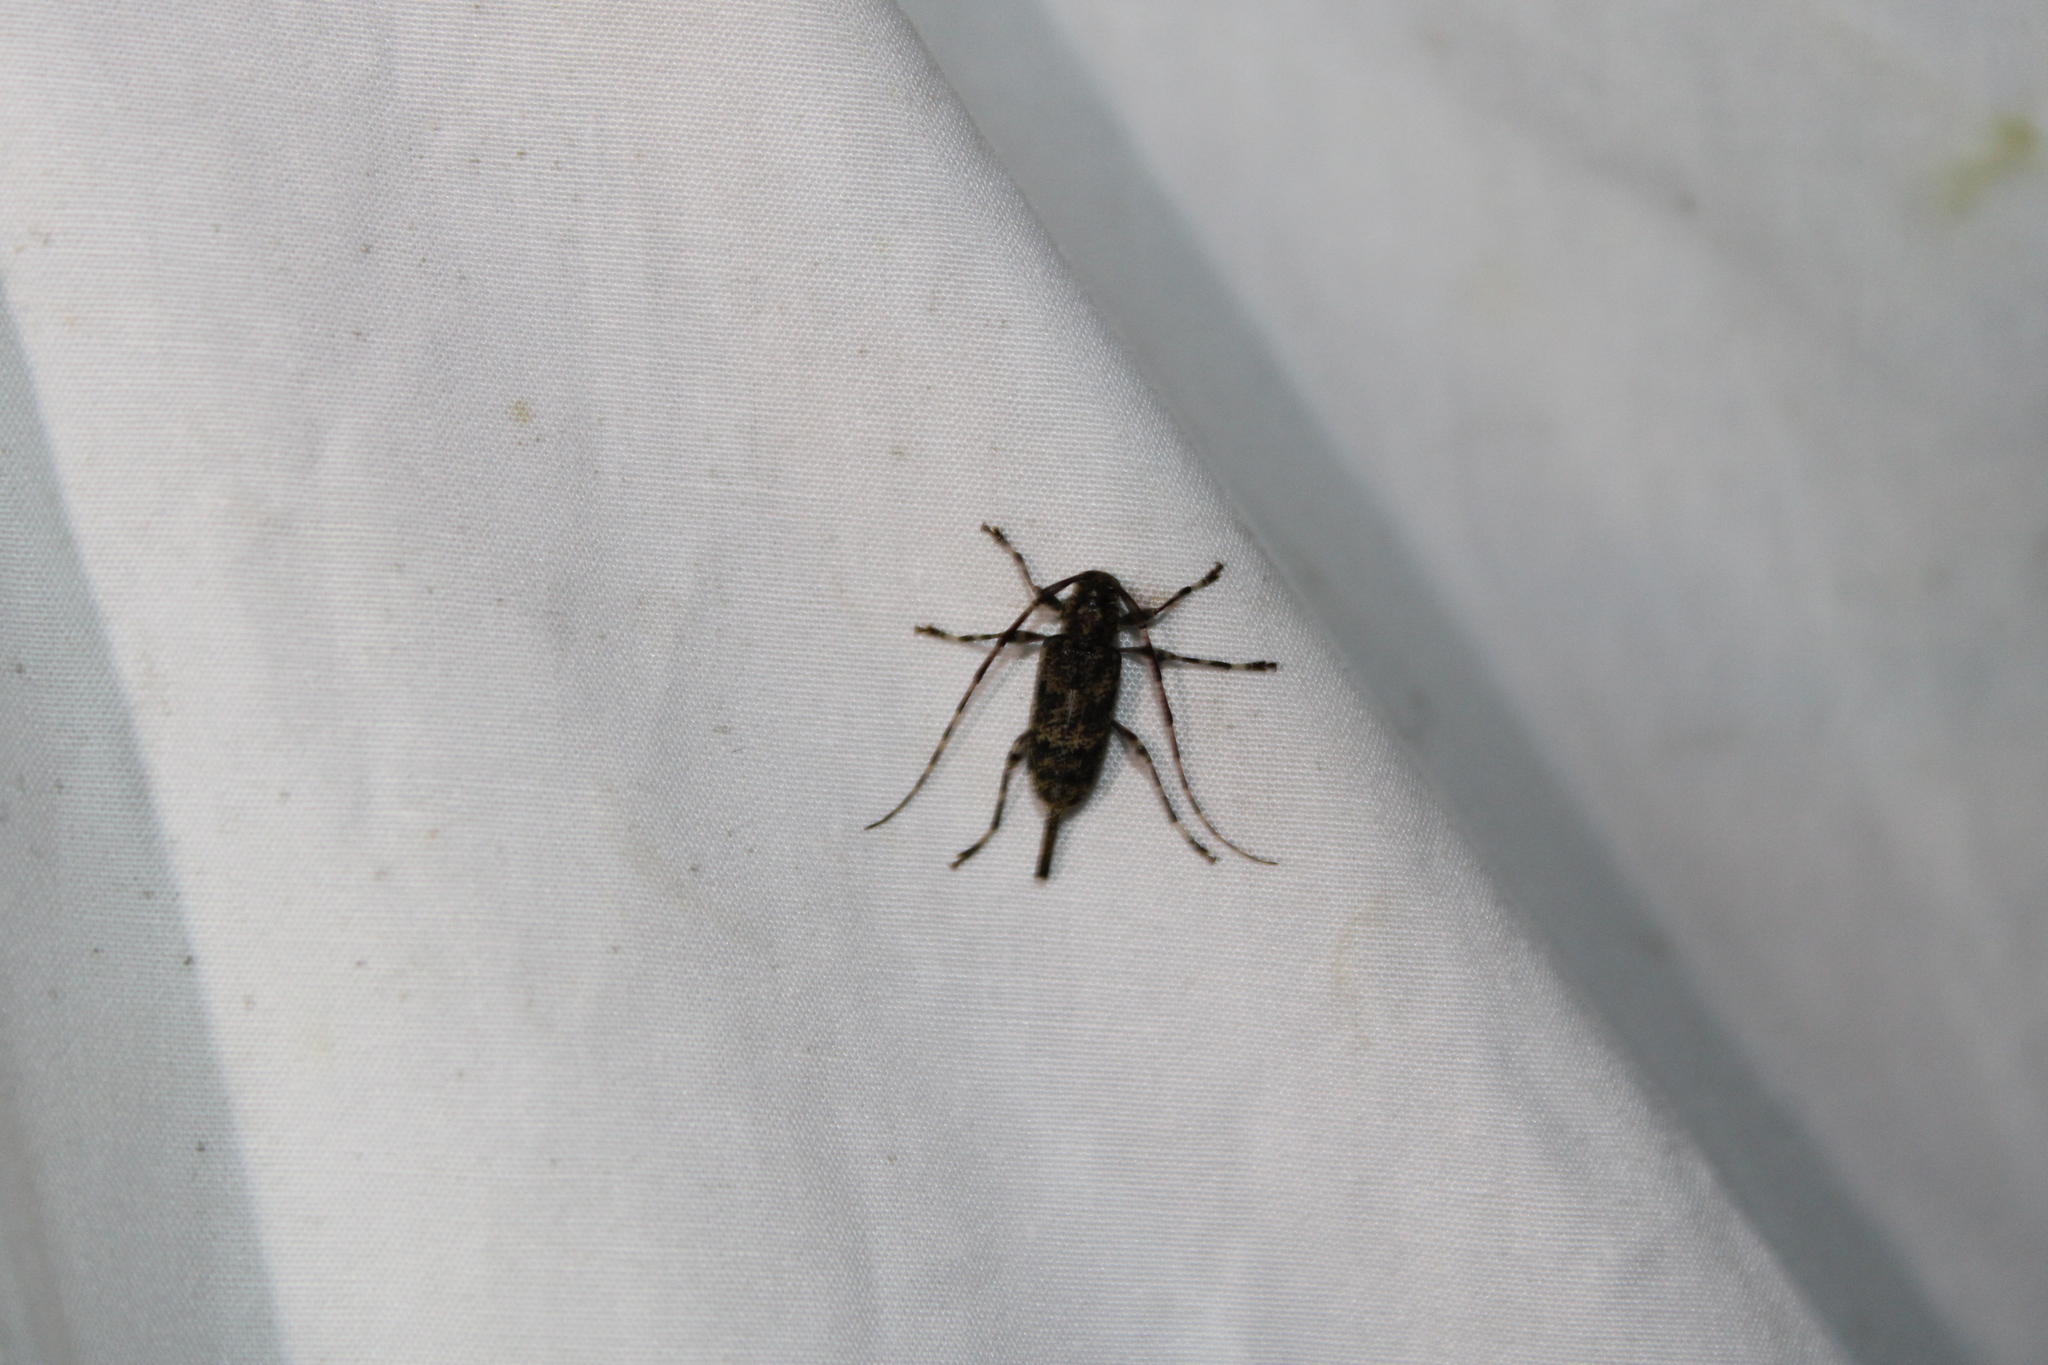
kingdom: Animalia
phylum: Arthropoda
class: Insecta
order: Coleoptera
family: Cerambycidae
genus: Graphisurus
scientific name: Graphisurus fasciatus
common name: Banded graphisurus
